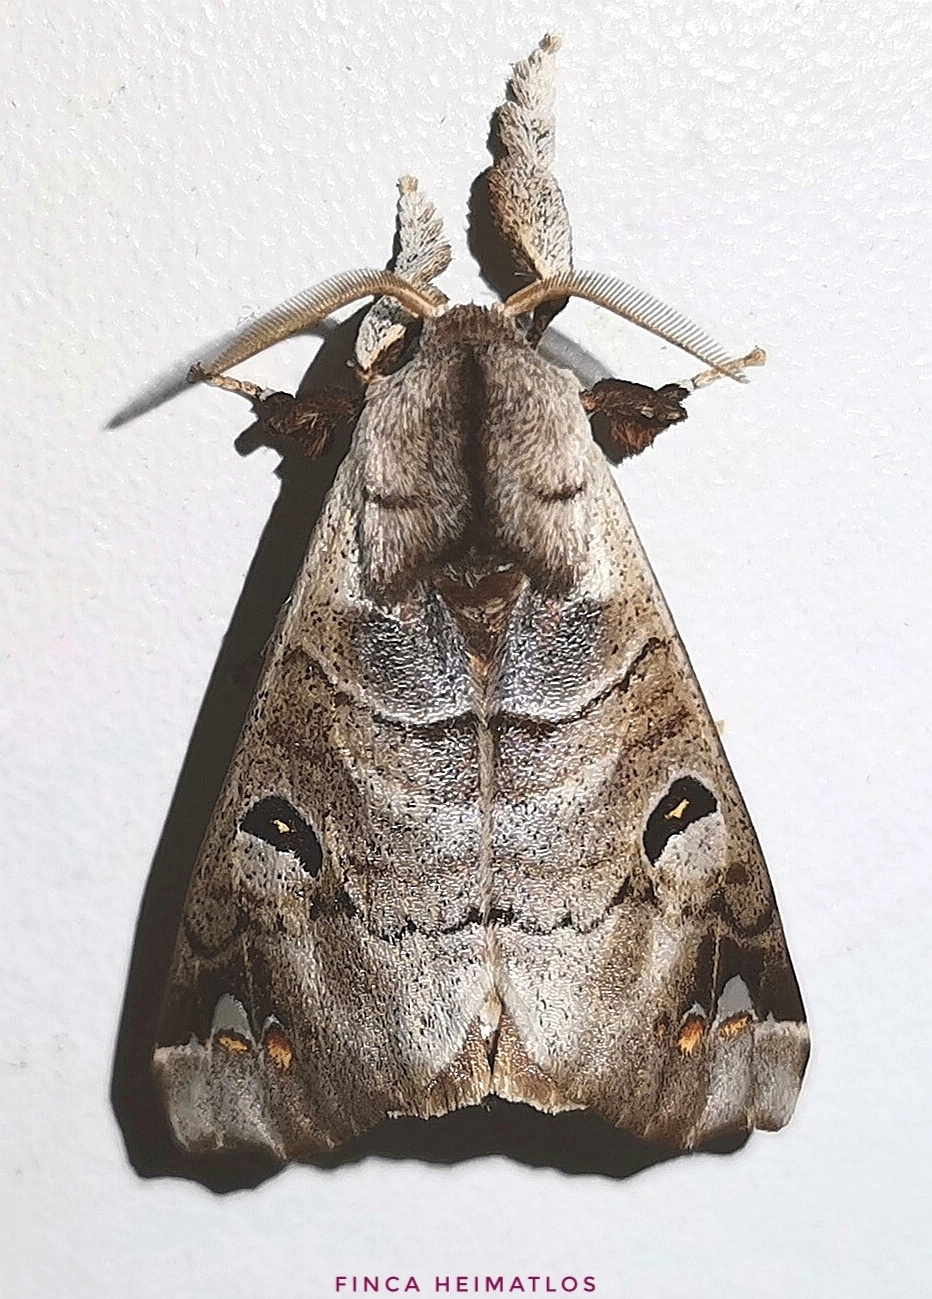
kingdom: Animalia
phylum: Arthropoda
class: Insecta
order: Lepidoptera
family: Apatelodidae
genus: Hygrochroa
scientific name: Hygrochroa satellitia
